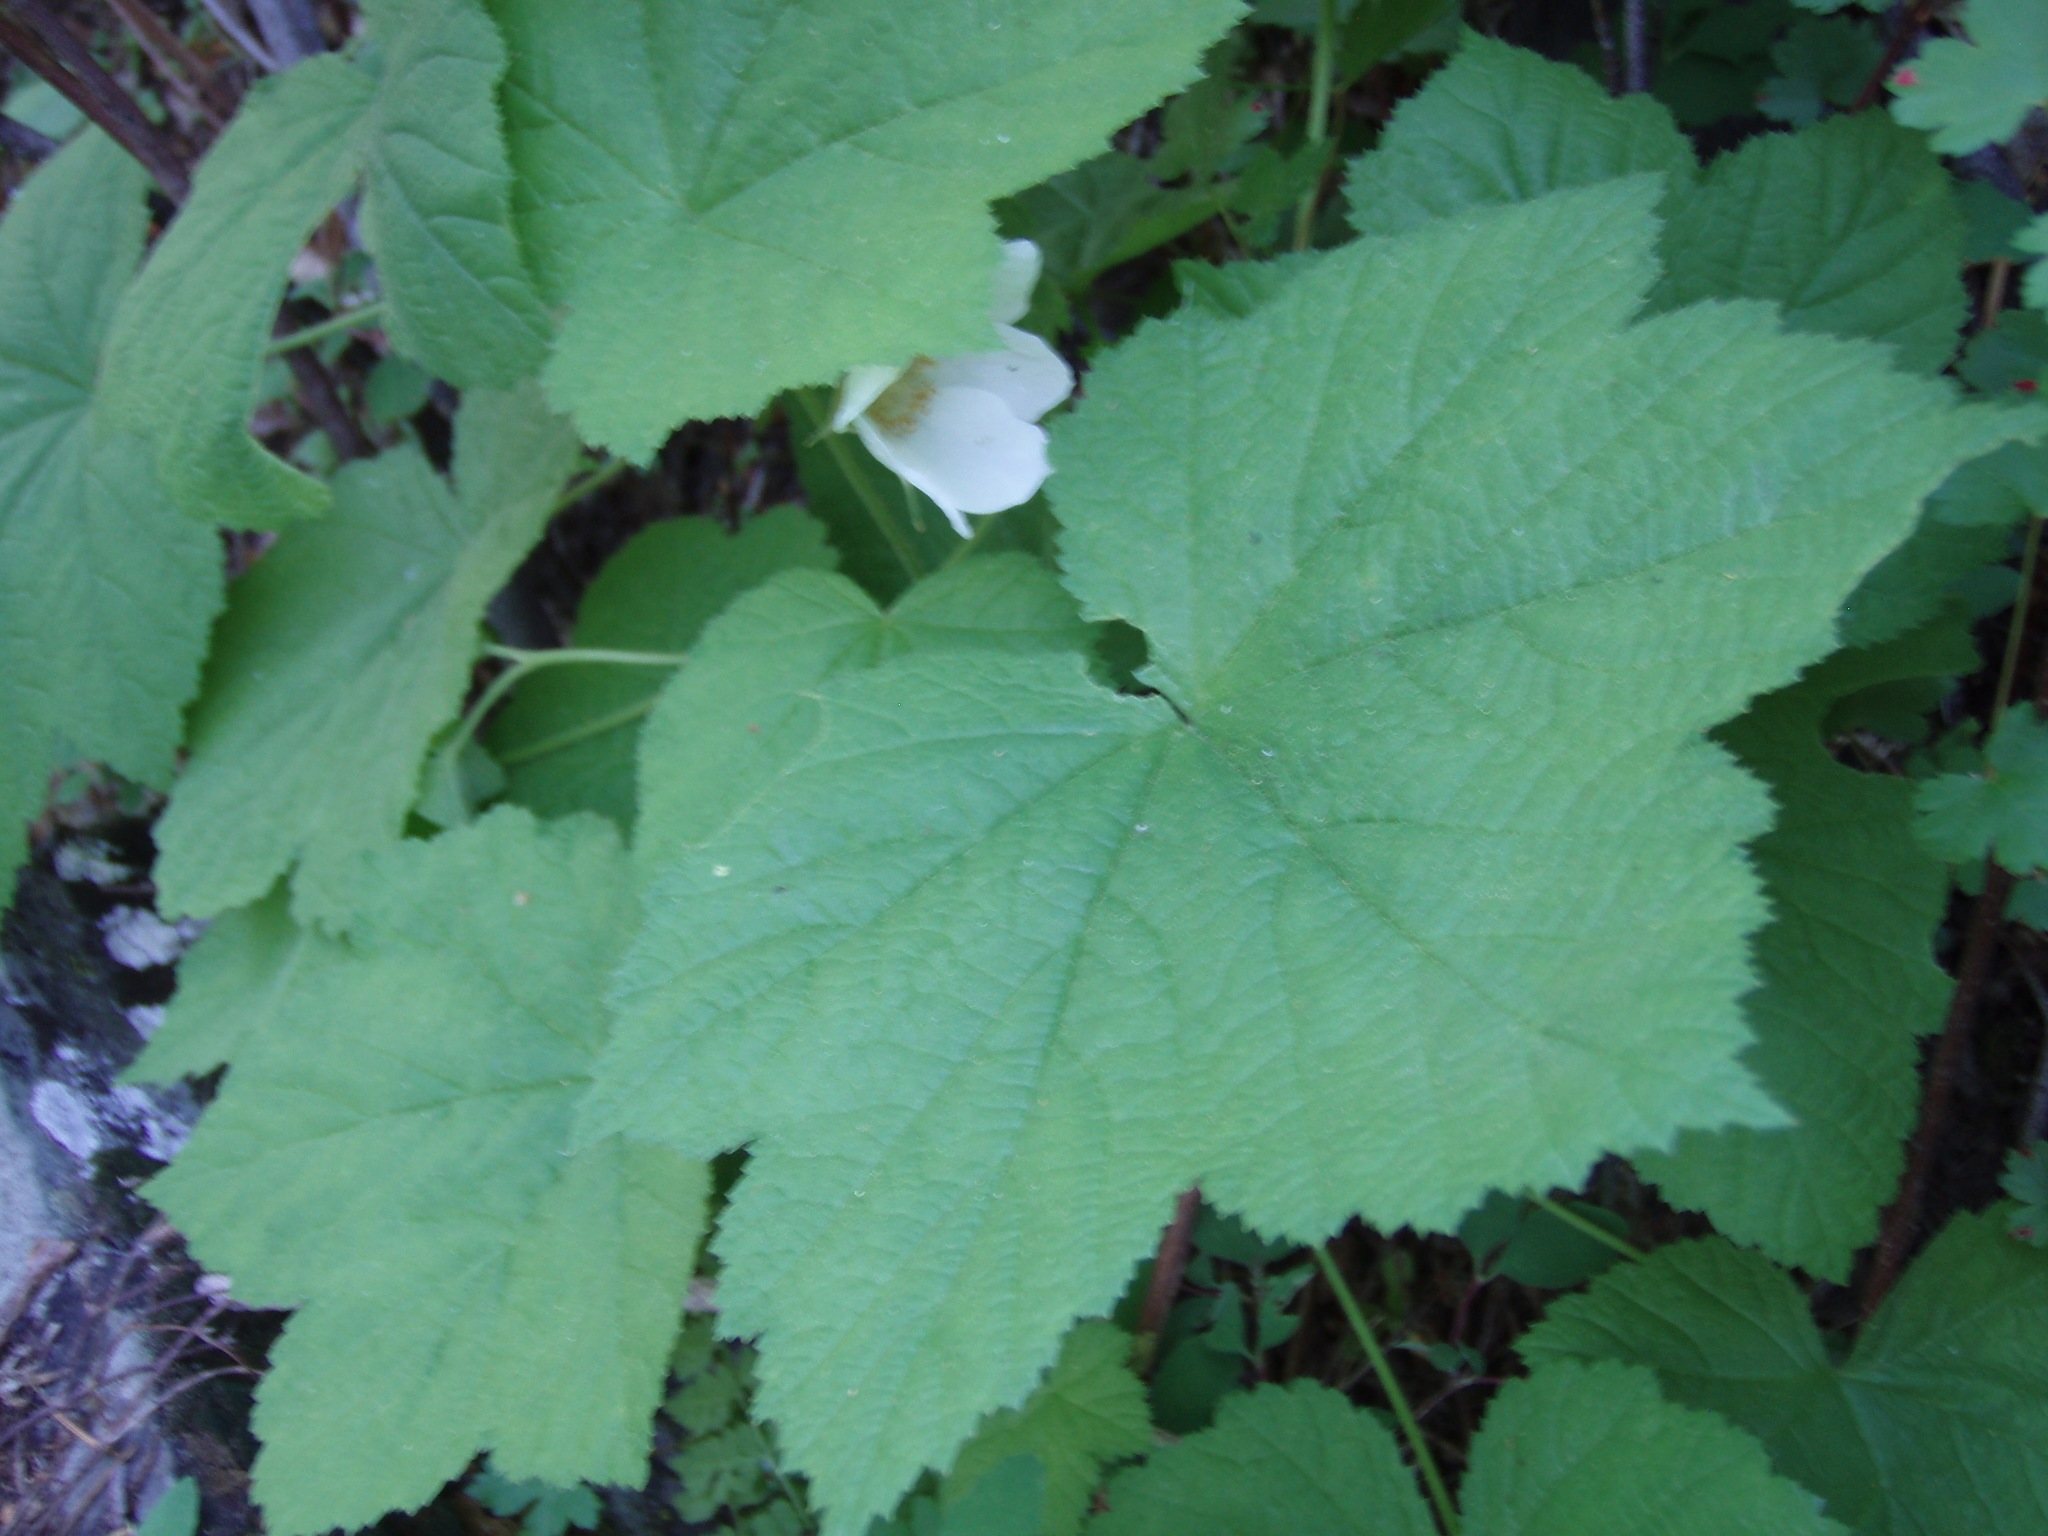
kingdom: Plantae
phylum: Tracheophyta
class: Magnoliopsida
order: Rosales
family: Rosaceae
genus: Rubus
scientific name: Rubus parviflorus
